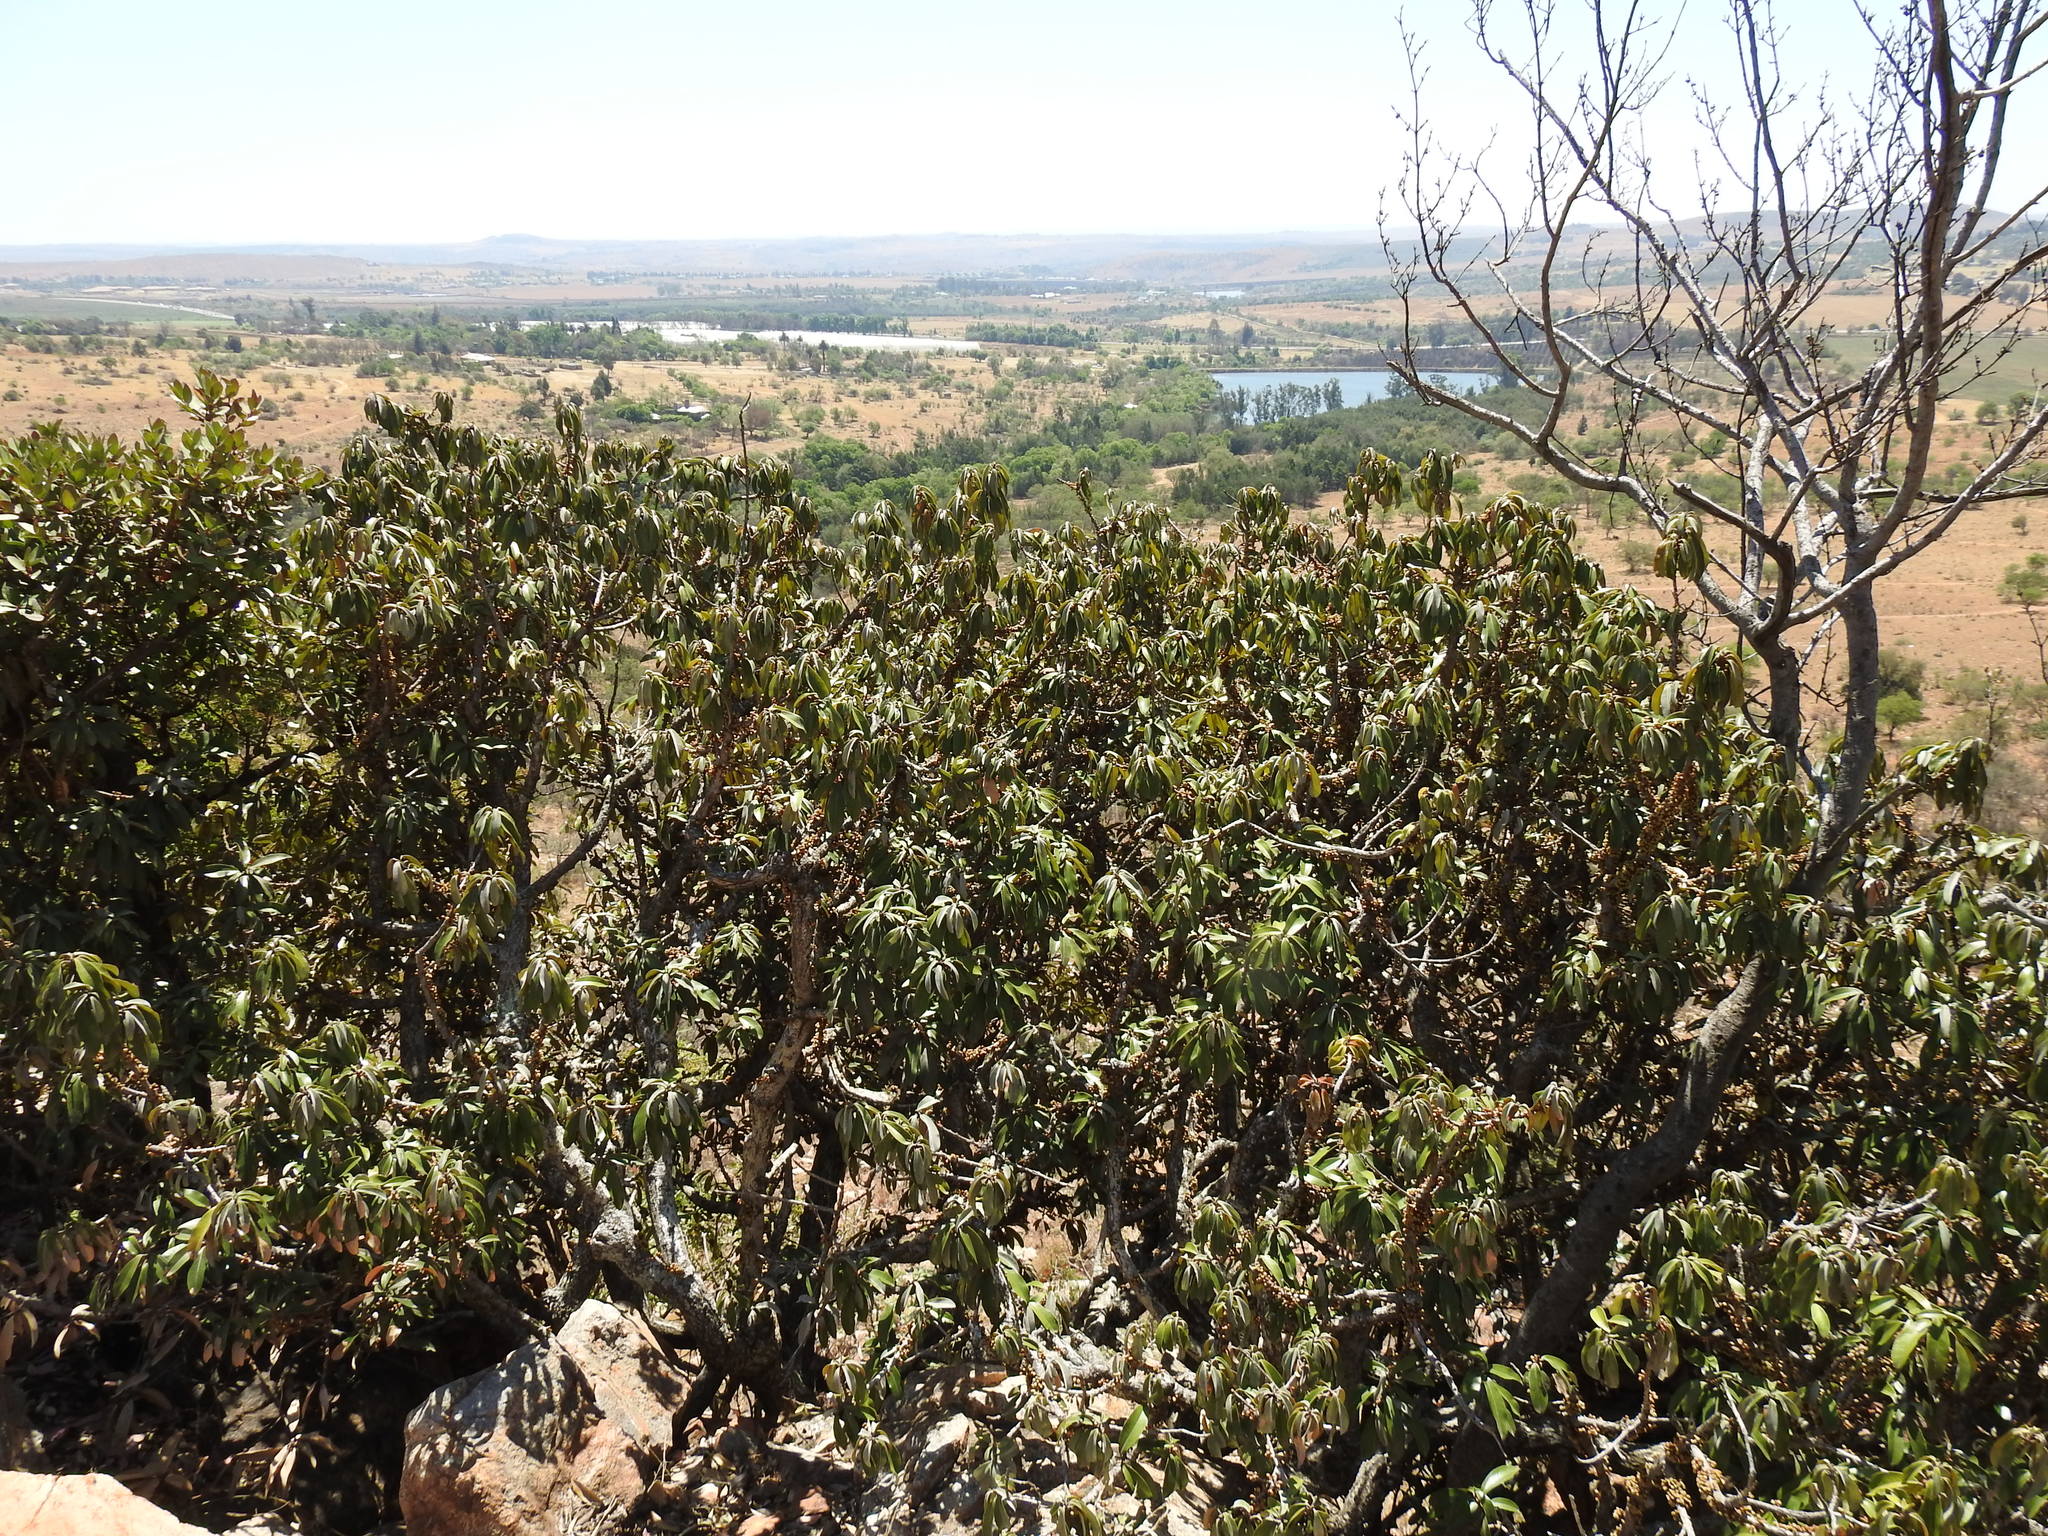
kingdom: Plantae
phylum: Tracheophyta
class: Magnoliopsida
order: Ericales
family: Sapotaceae
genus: Englerophytum
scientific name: Englerophytum magalismontanum
